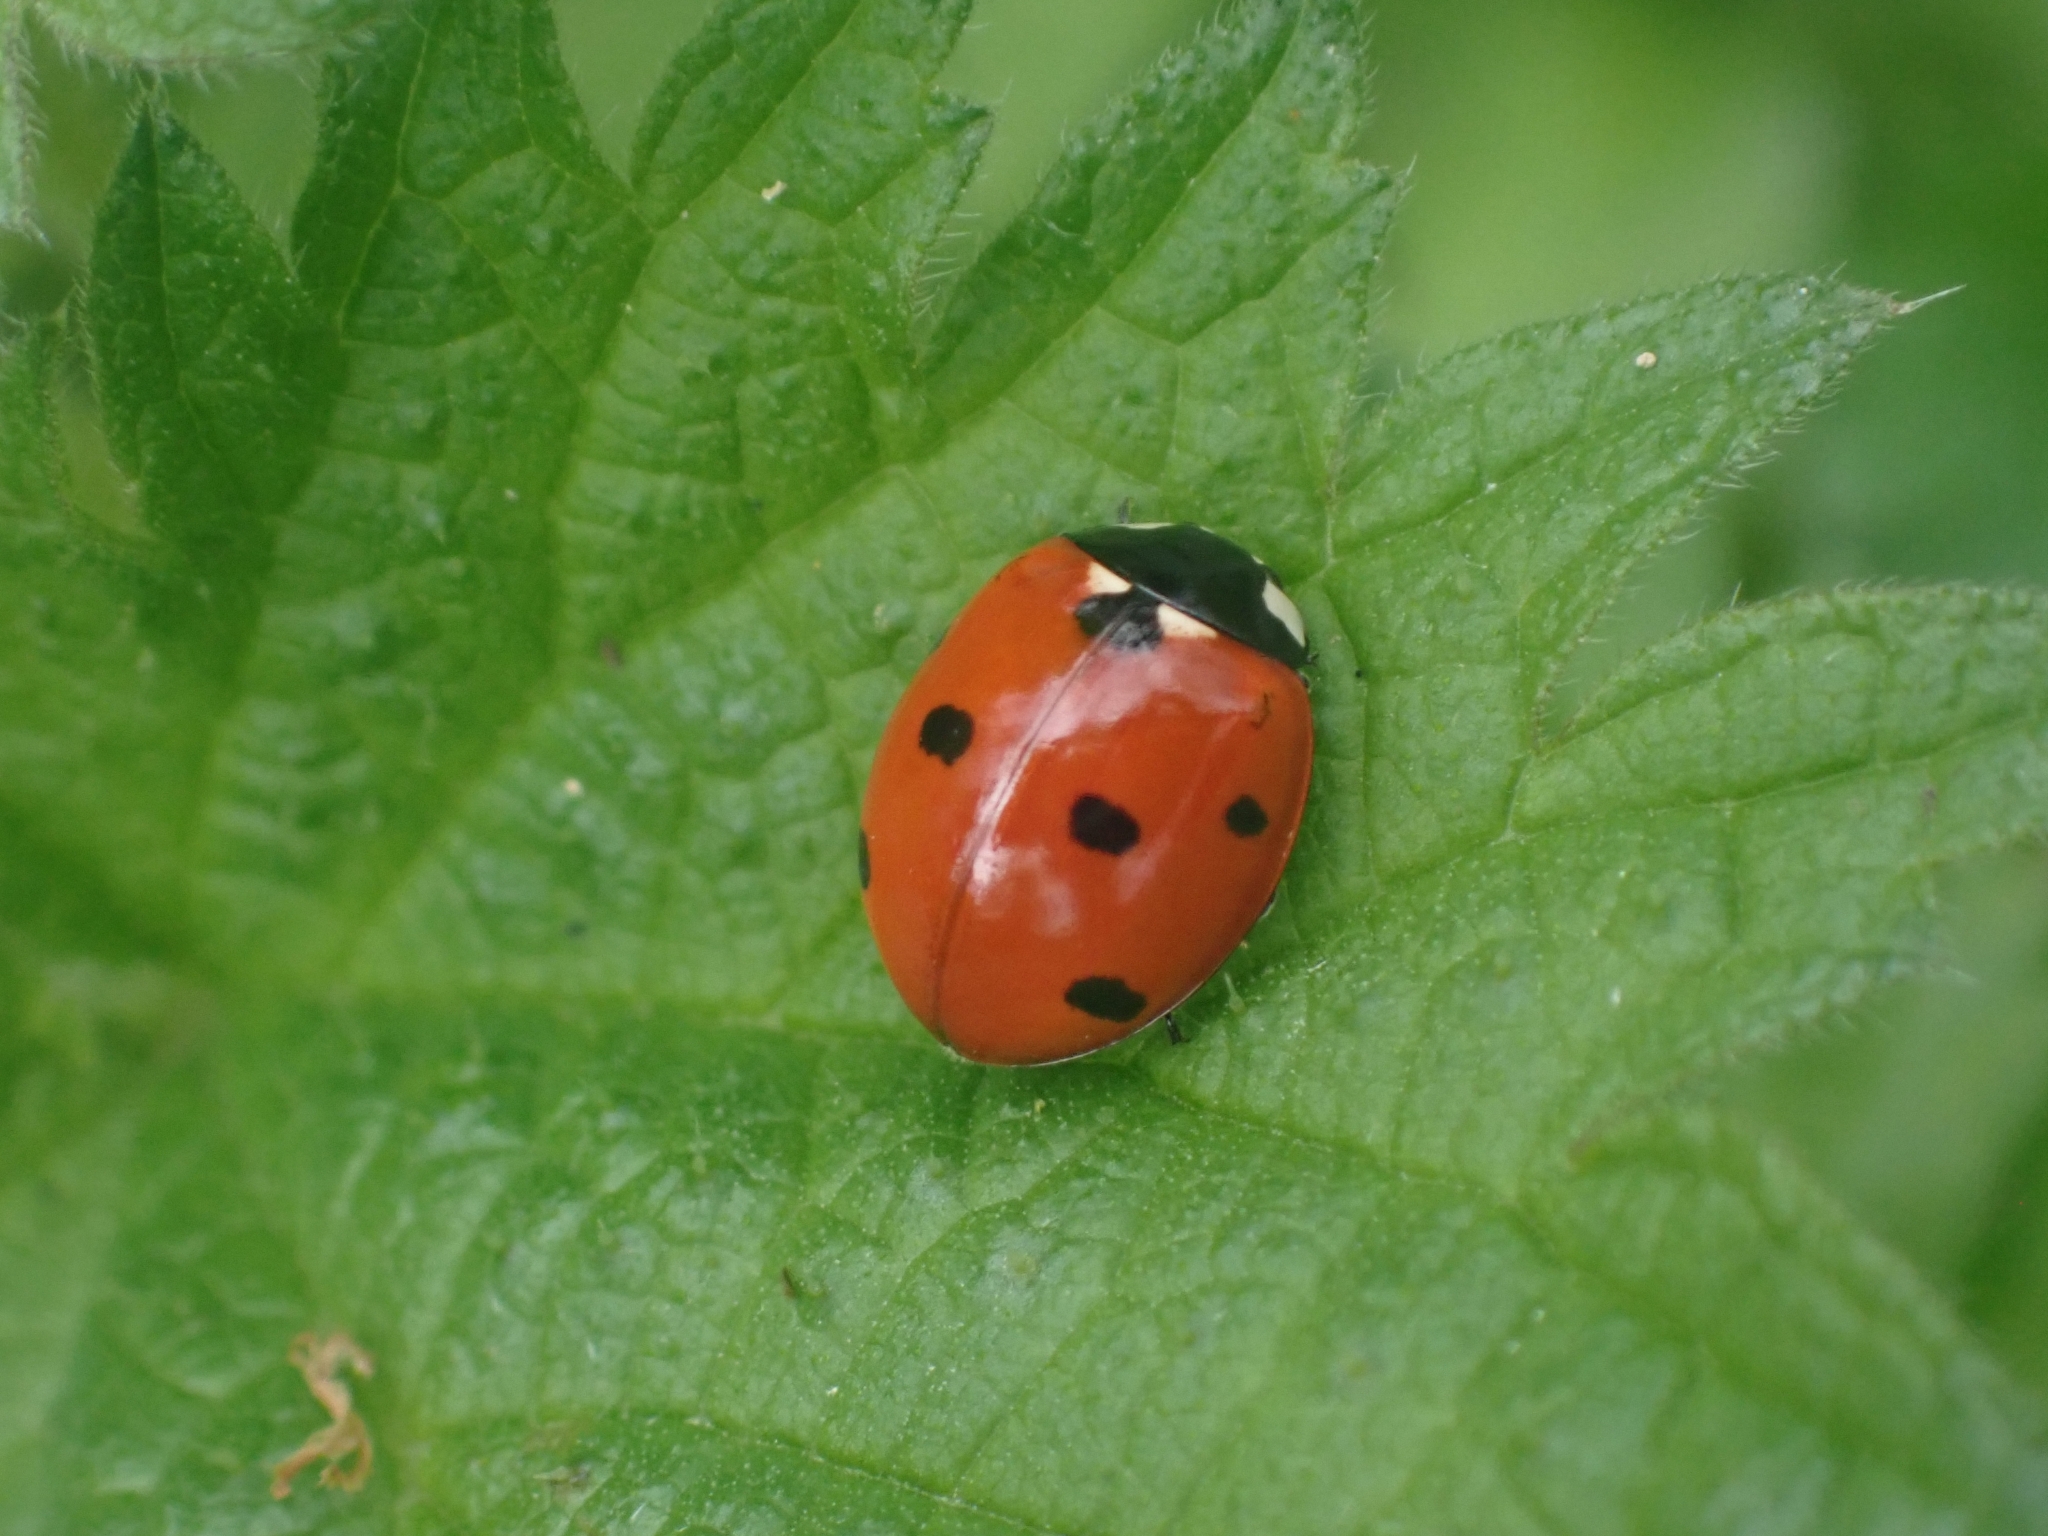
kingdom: Animalia
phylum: Arthropoda
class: Insecta
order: Coleoptera
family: Coccinellidae
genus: Coccinella
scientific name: Coccinella septempunctata
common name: Sevenspotted lady beetle
